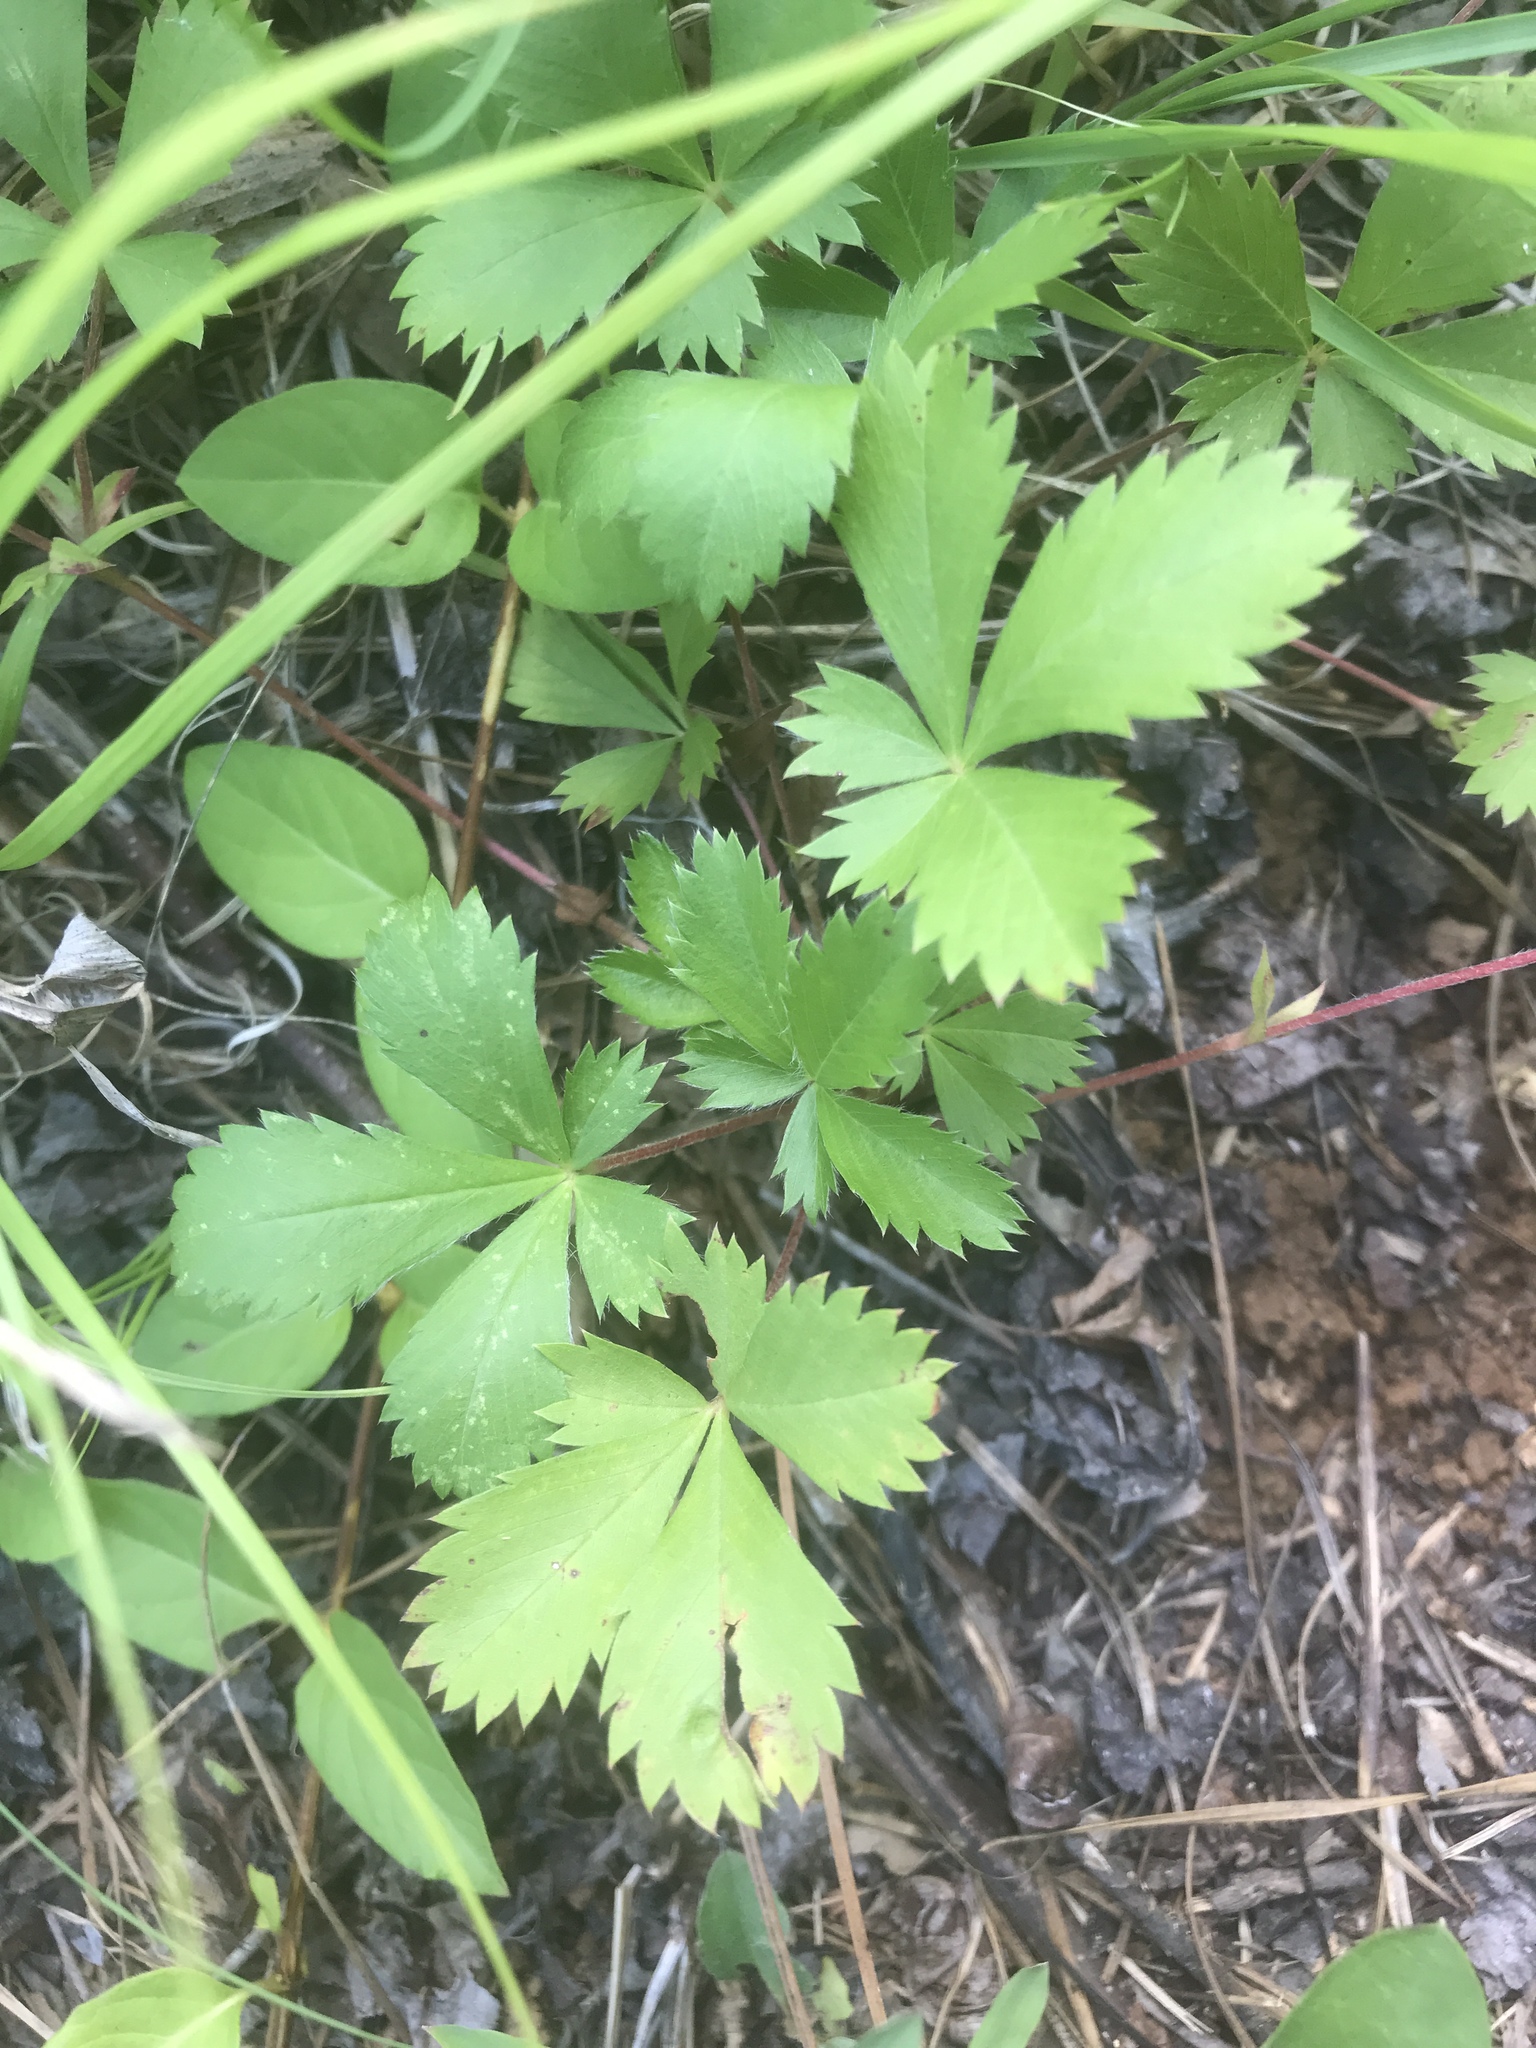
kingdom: Plantae
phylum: Tracheophyta
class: Magnoliopsida
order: Rosales
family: Rosaceae
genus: Potentilla
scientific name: Potentilla canadensis
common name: Canada cinquefoil
